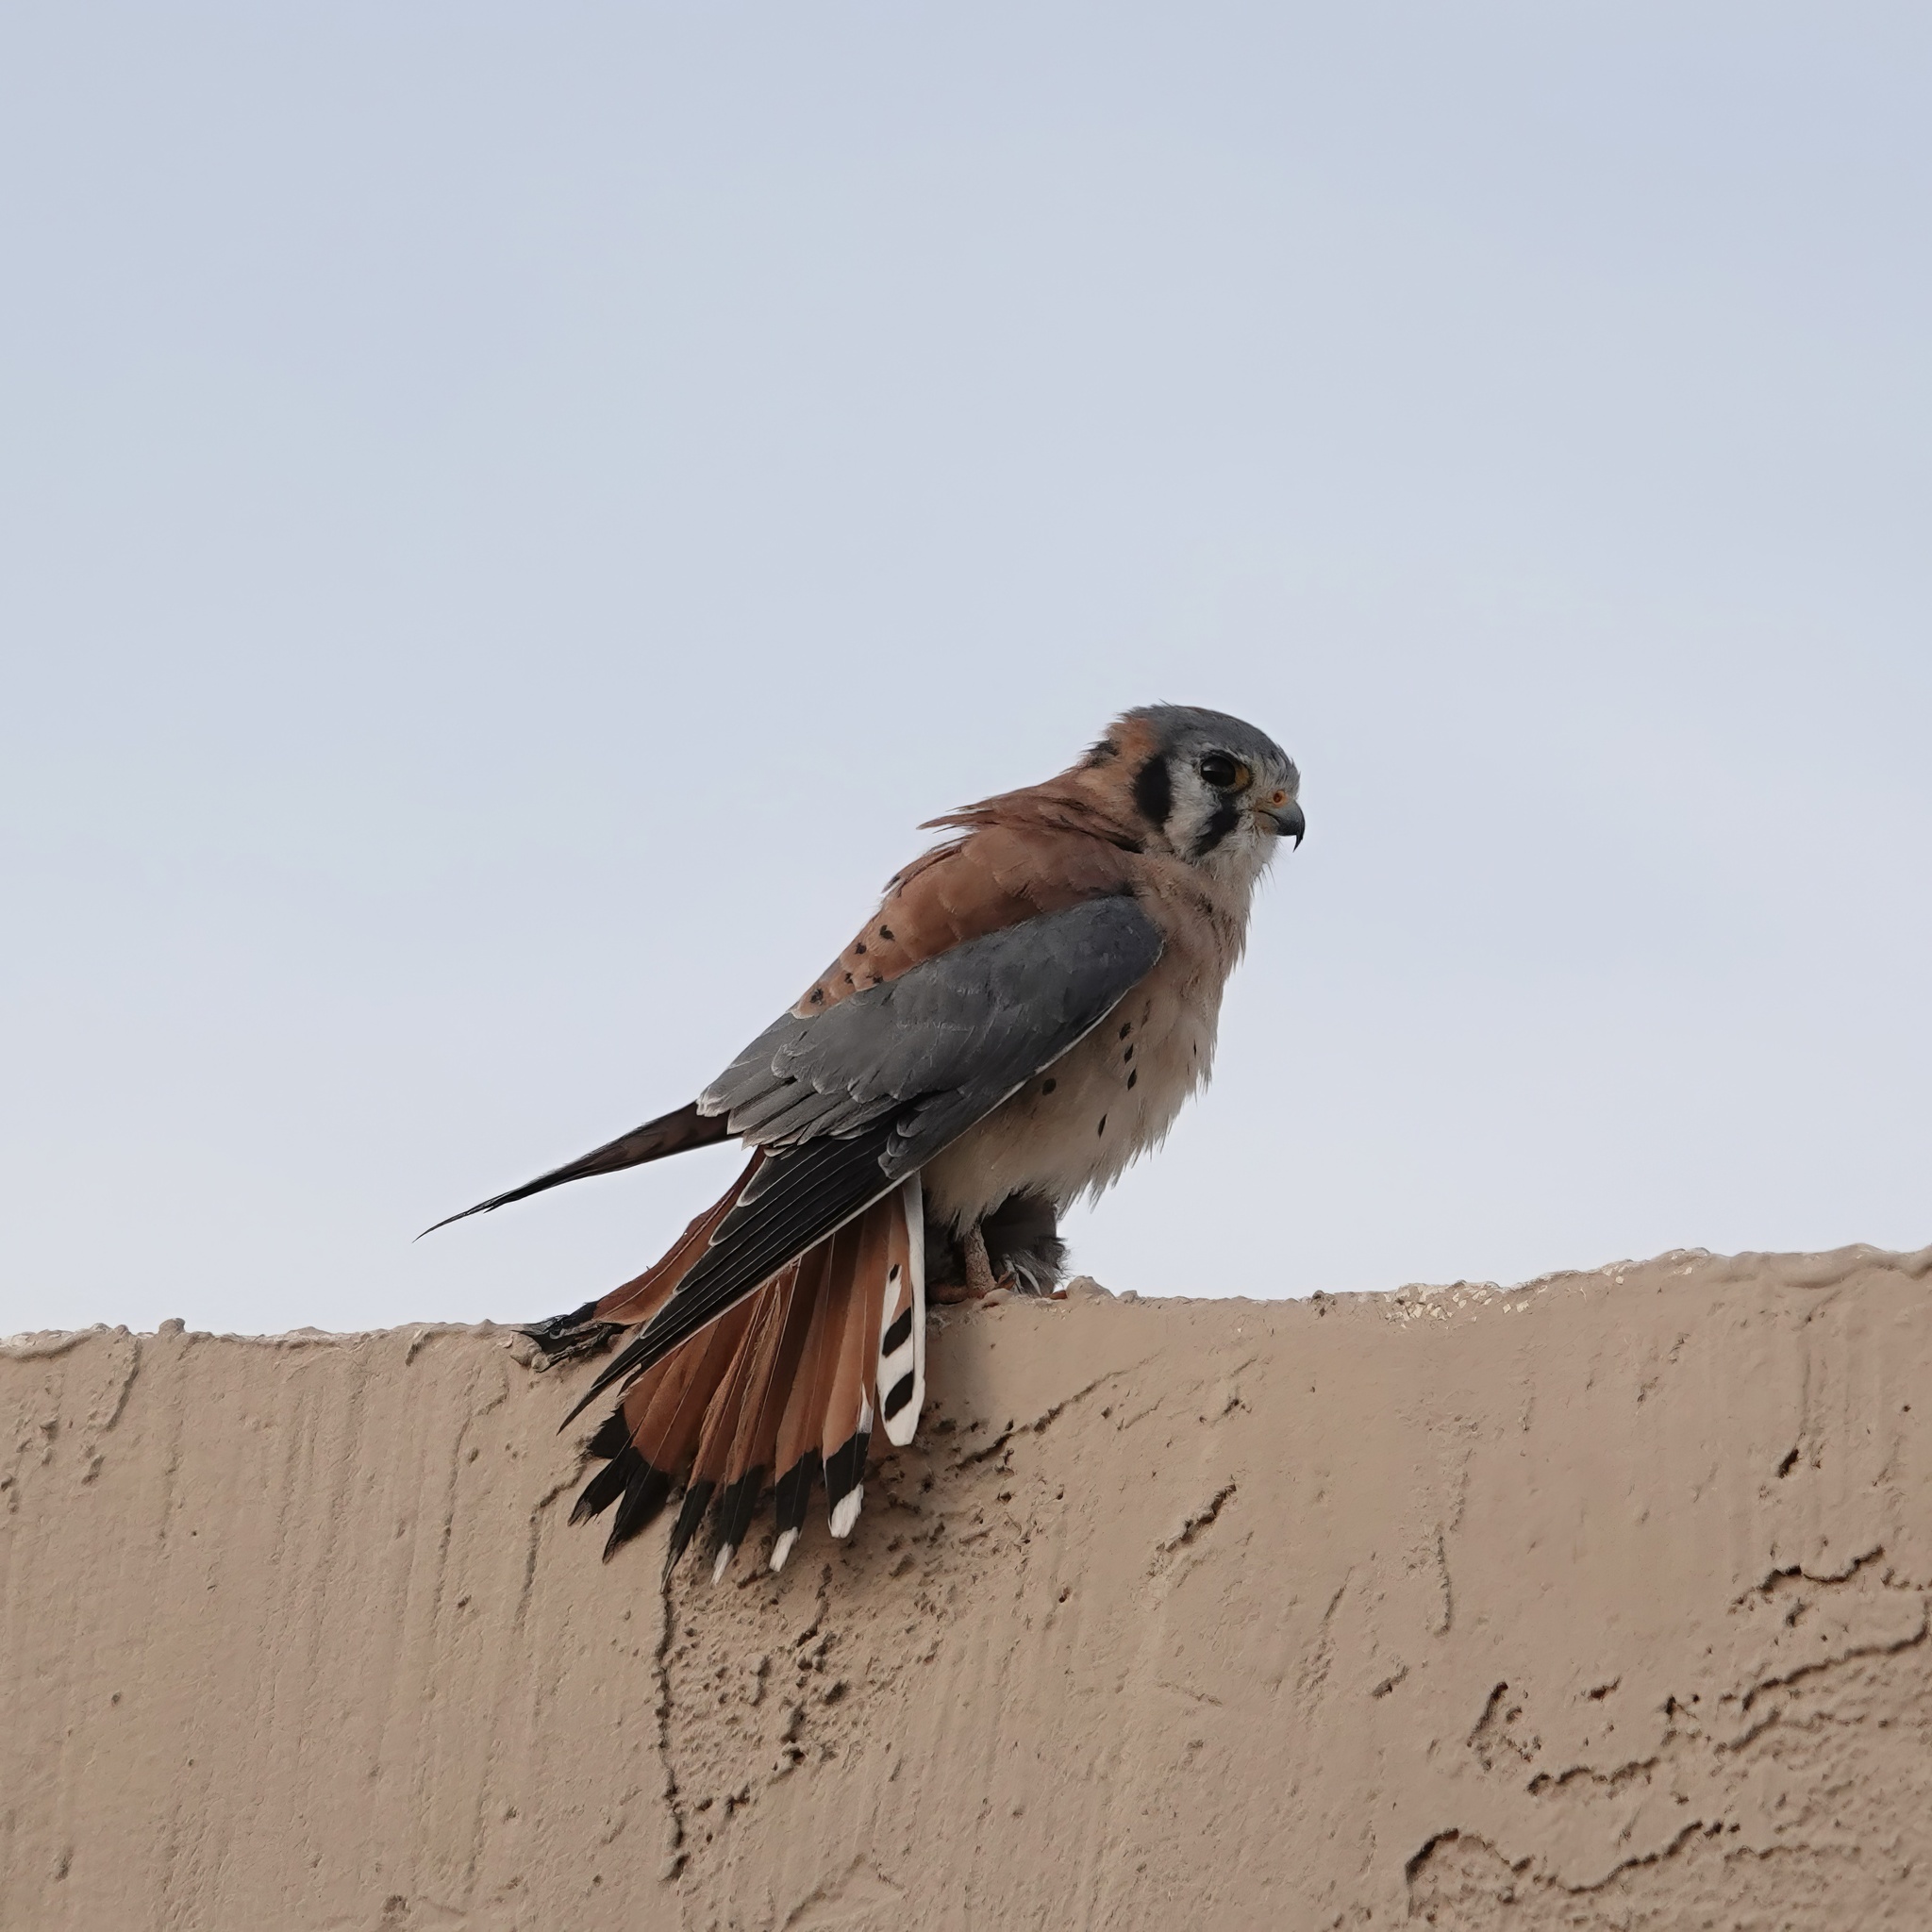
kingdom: Animalia
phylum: Chordata
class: Aves
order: Falconiformes
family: Falconidae
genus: Falco
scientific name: Falco sparverius
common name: American kestrel
